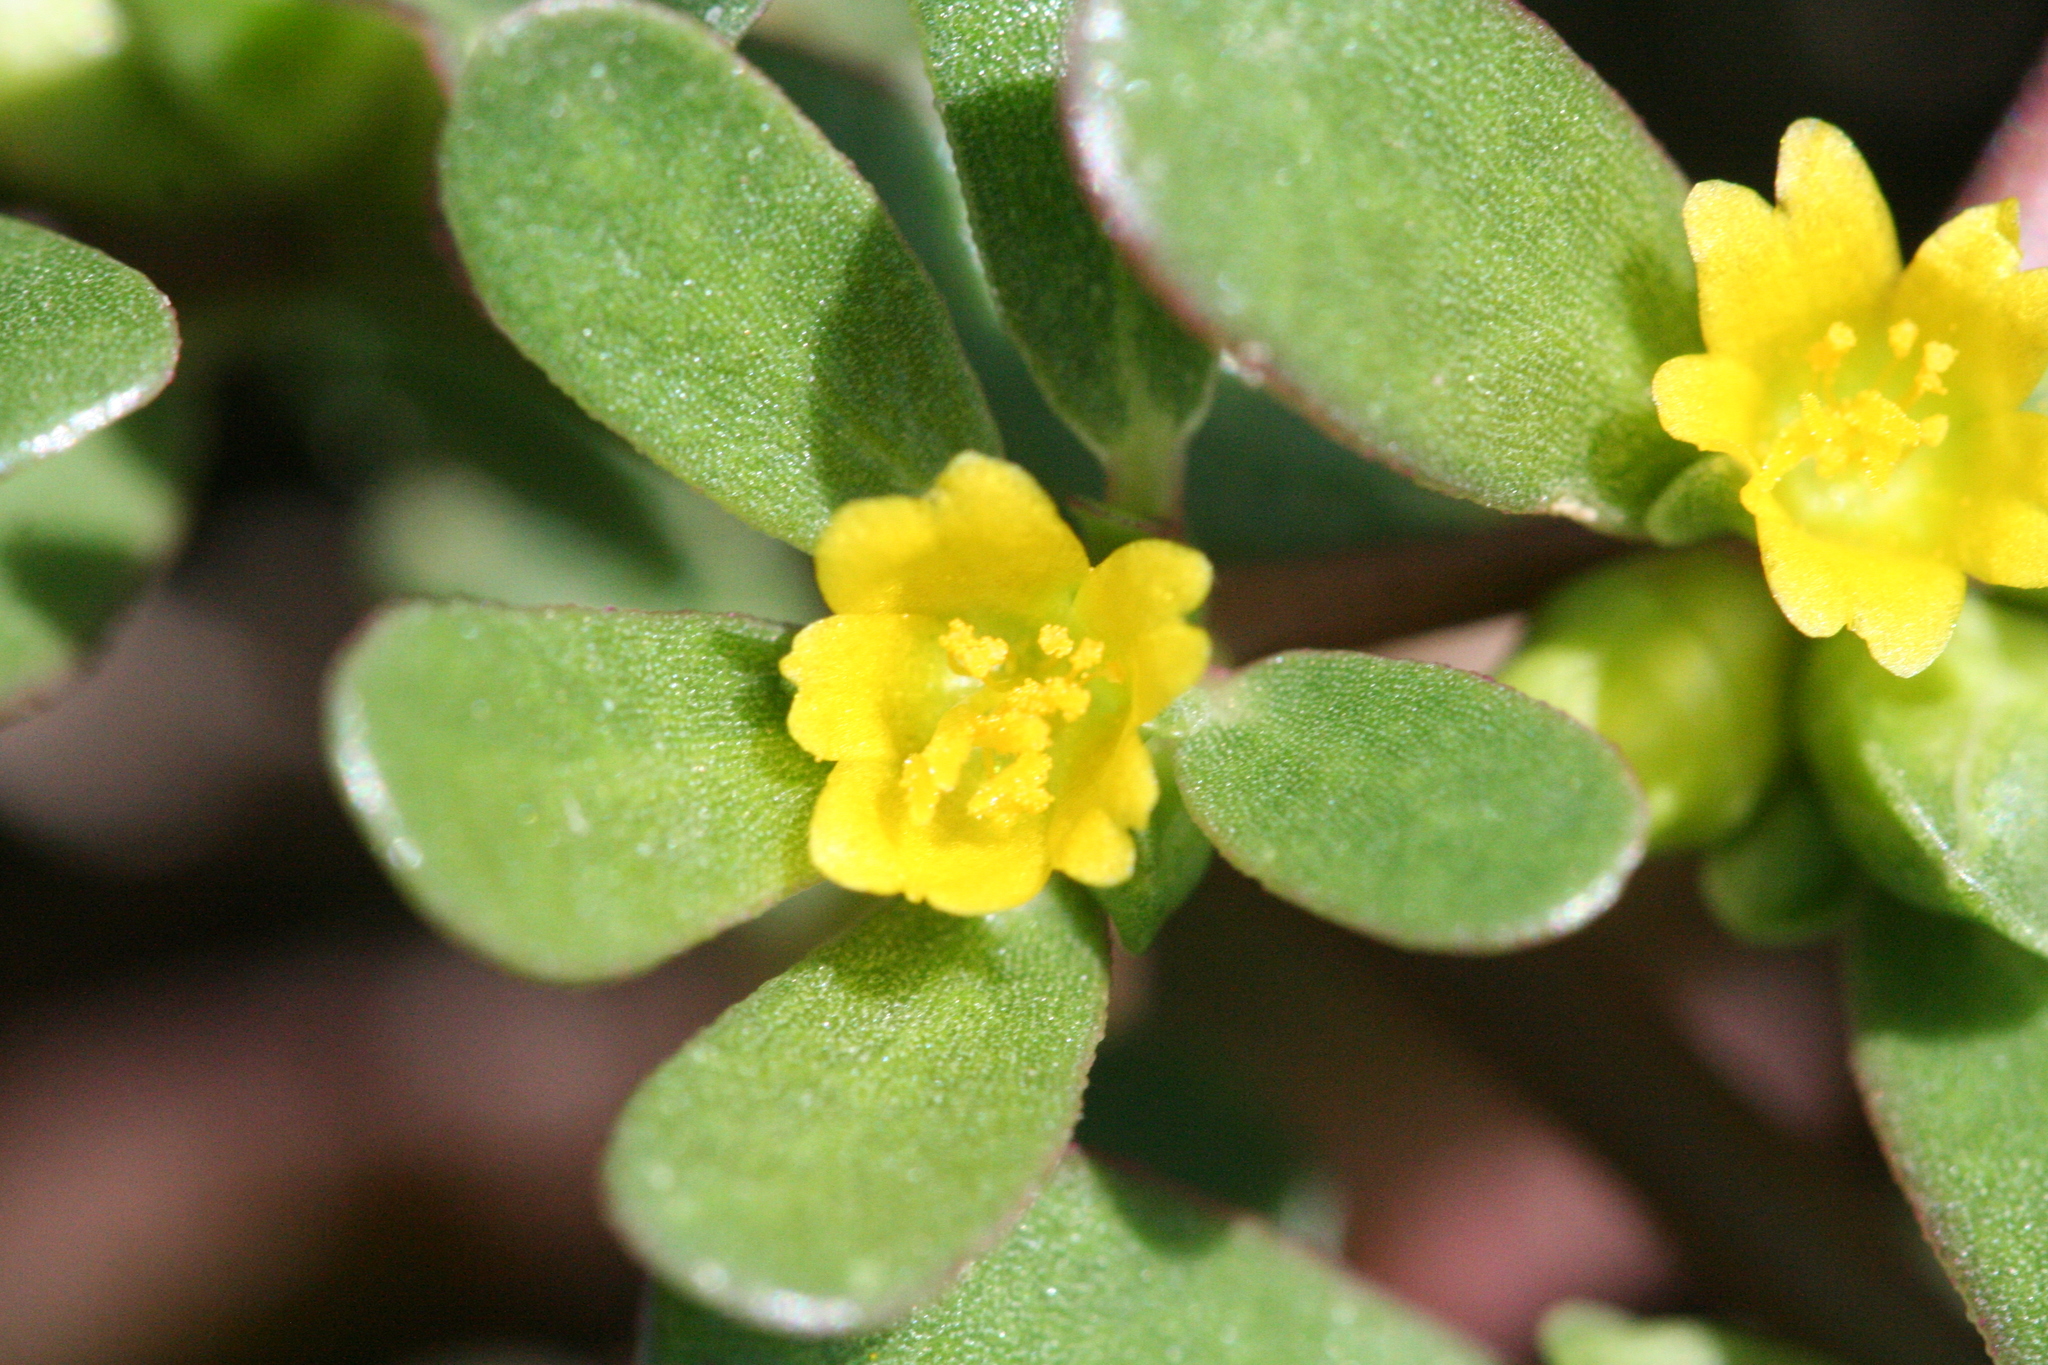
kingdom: Plantae
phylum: Tracheophyta
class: Magnoliopsida
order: Caryophyllales
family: Portulacaceae
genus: Portulaca
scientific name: Portulaca oleracea
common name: Common purslane
